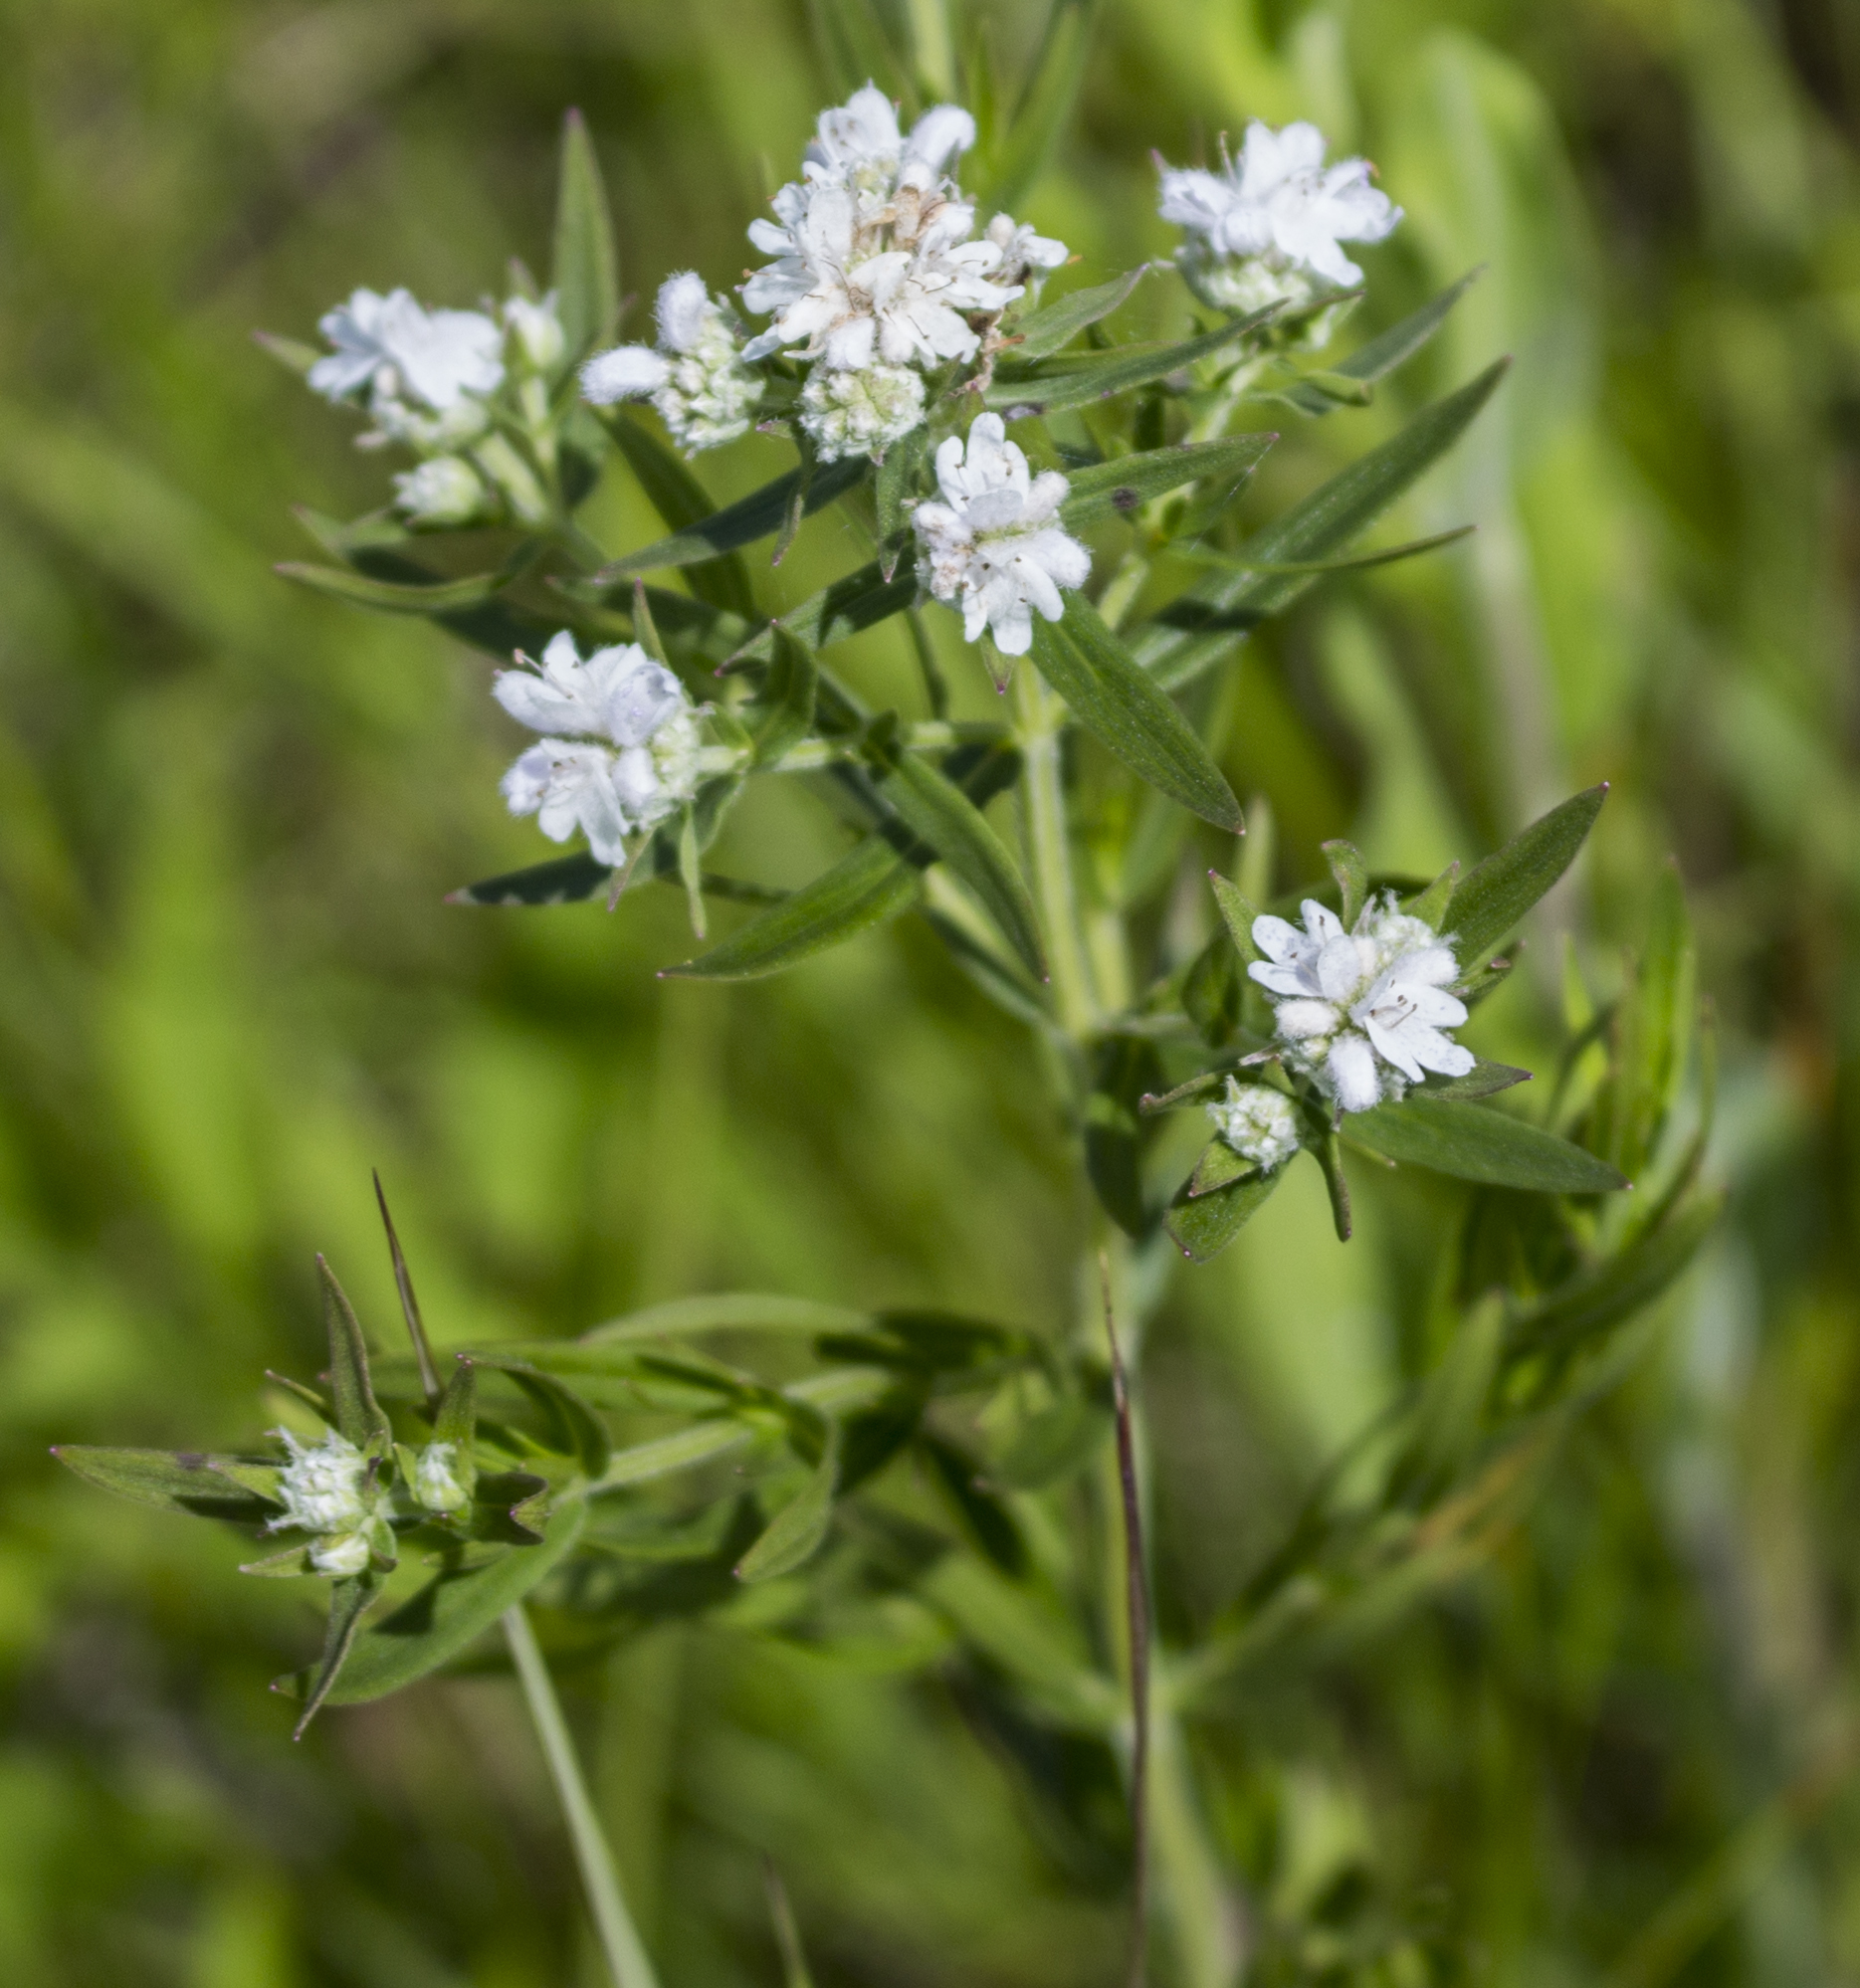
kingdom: Plantae
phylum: Tracheophyta
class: Magnoliopsida
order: Lamiales
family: Lamiaceae
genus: Pycnanthemum
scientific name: Pycnanthemum virginianum
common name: Virginia mountain-mint
